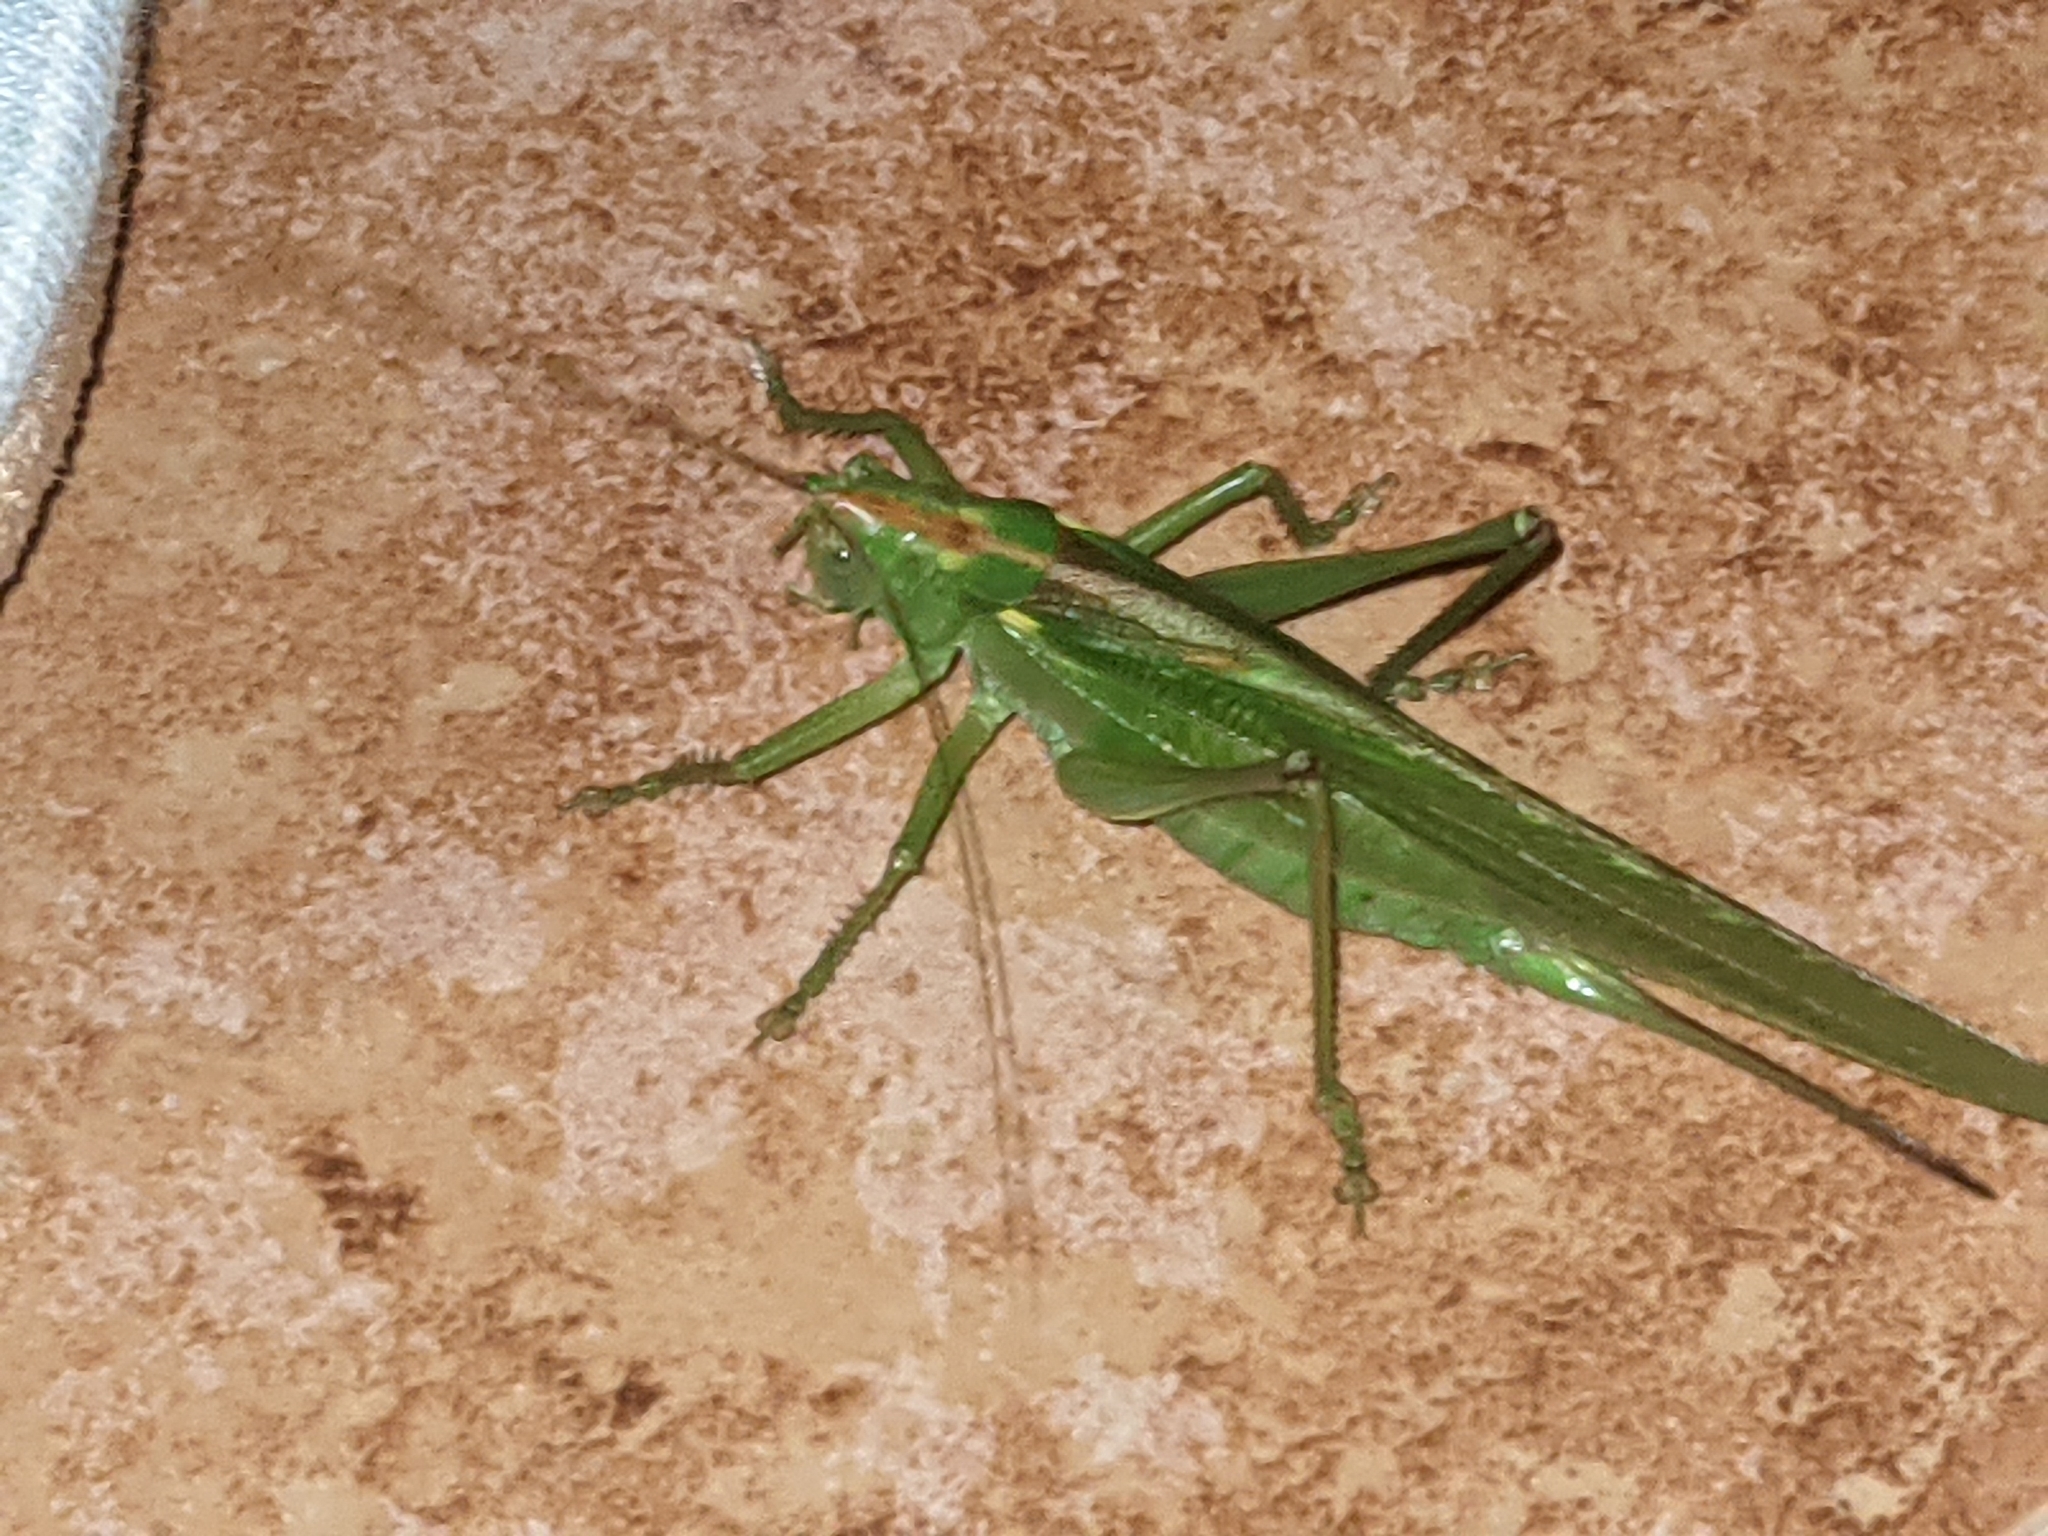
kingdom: Animalia
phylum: Arthropoda
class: Insecta
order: Orthoptera
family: Tettigoniidae
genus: Tettigonia
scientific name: Tettigonia viridissima
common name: Great green bush-cricket
